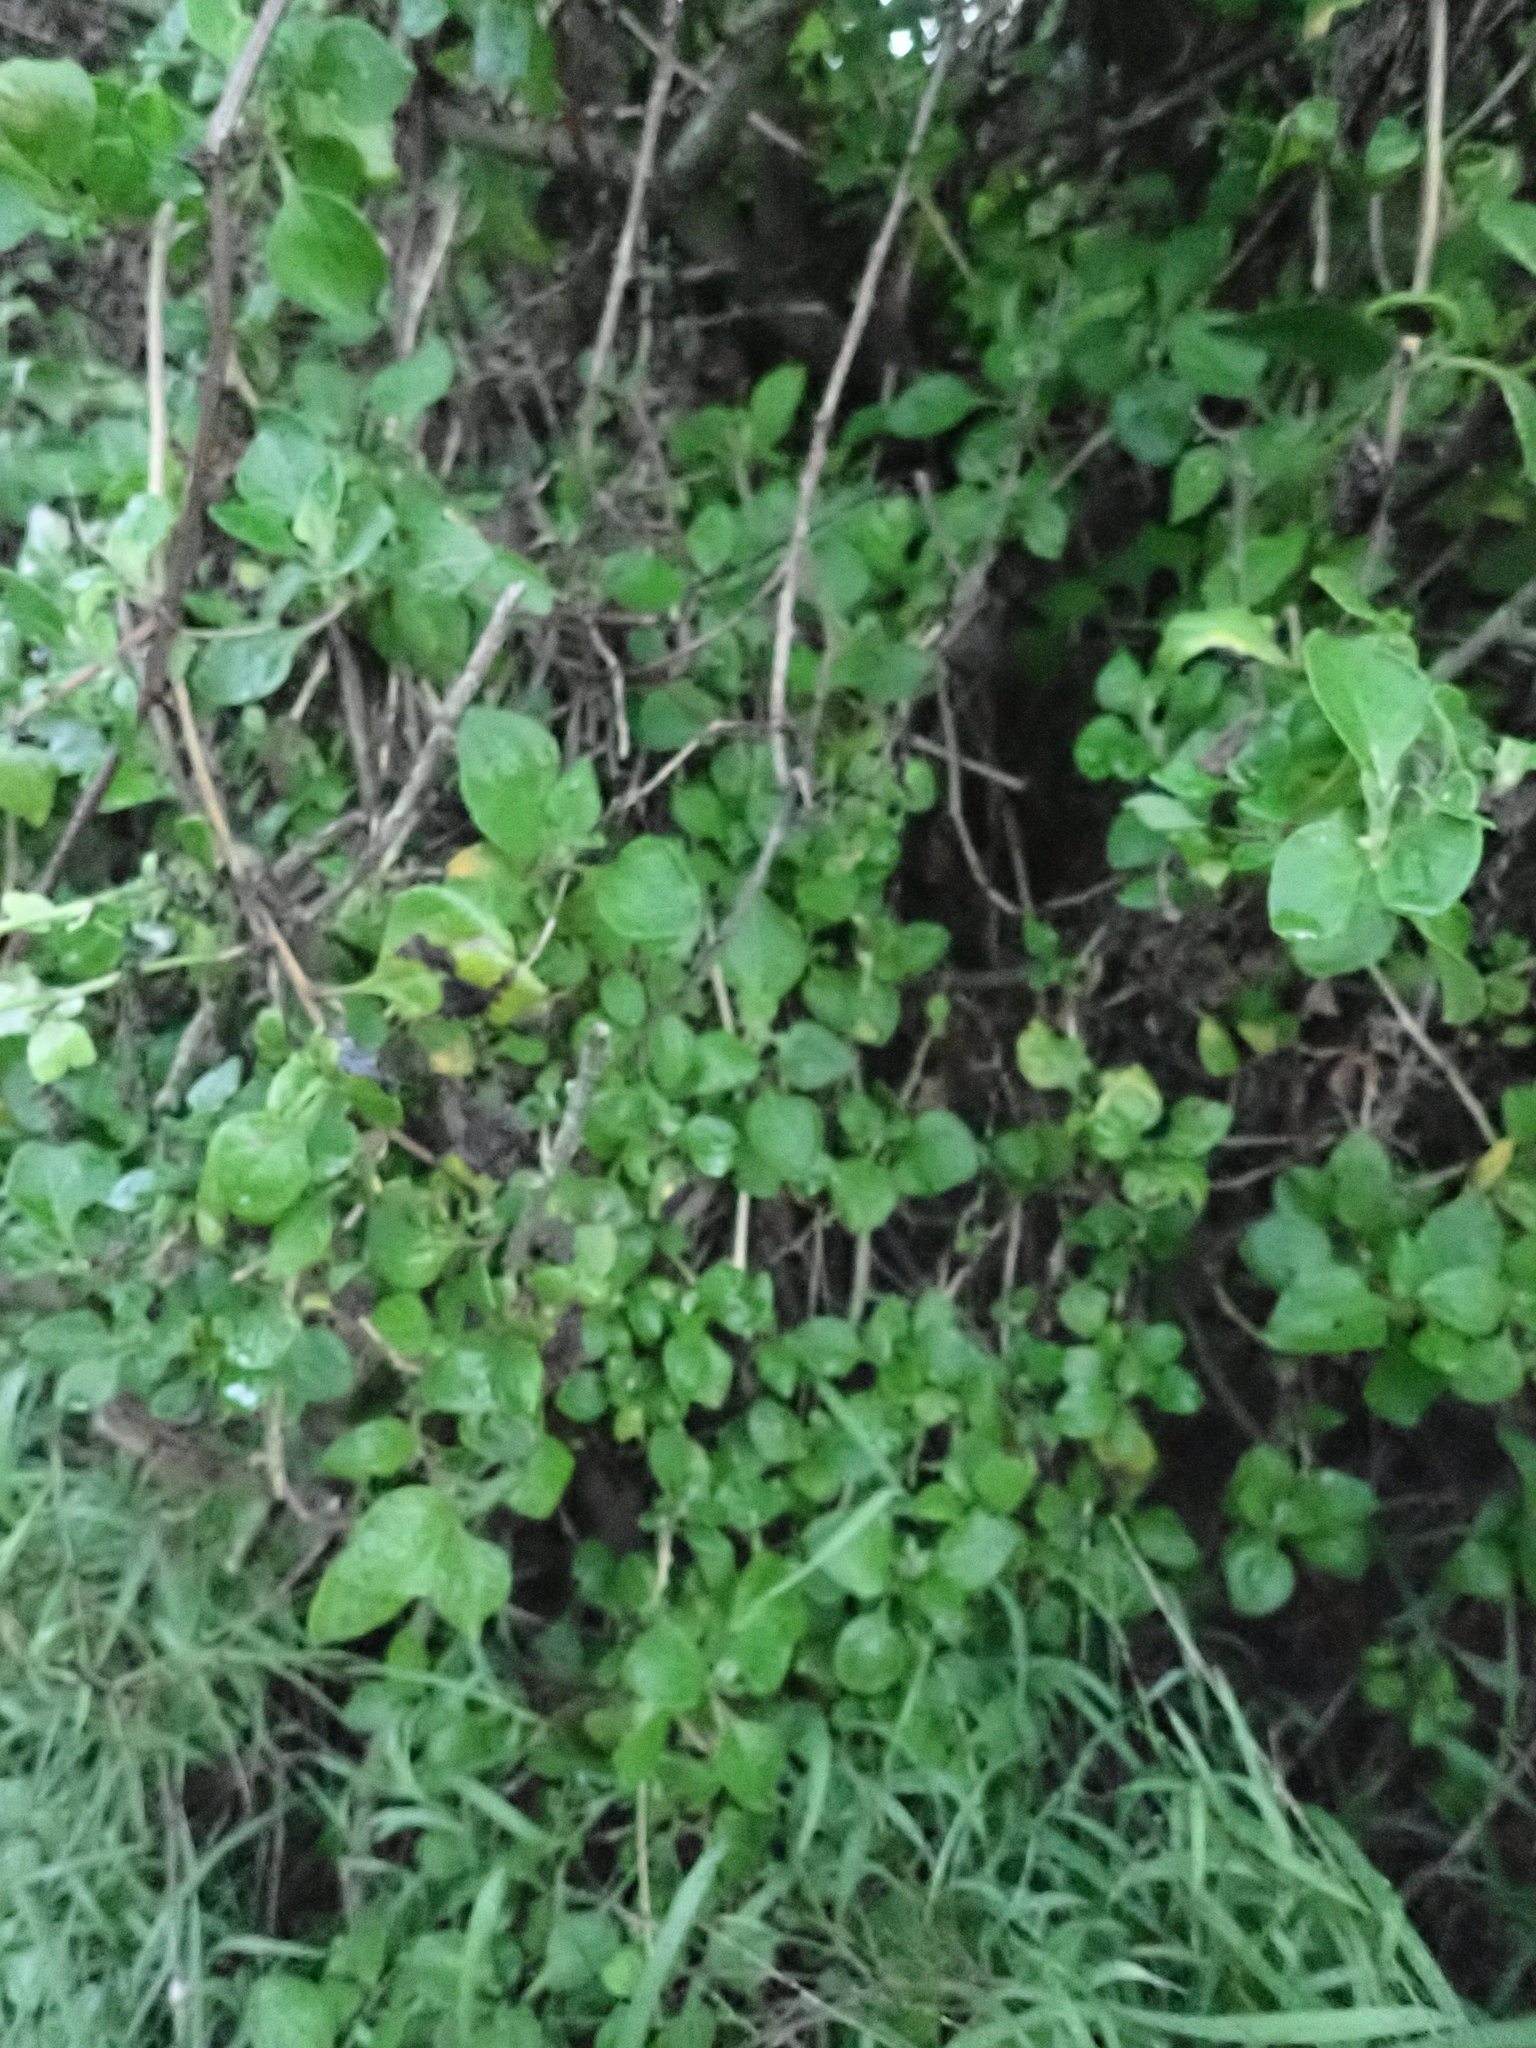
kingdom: Plantae
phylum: Tracheophyta
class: Magnoliopsida
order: Caryophyllales
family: Aizoaceae
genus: Tetragonia
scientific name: Tetragonia implexicoma
